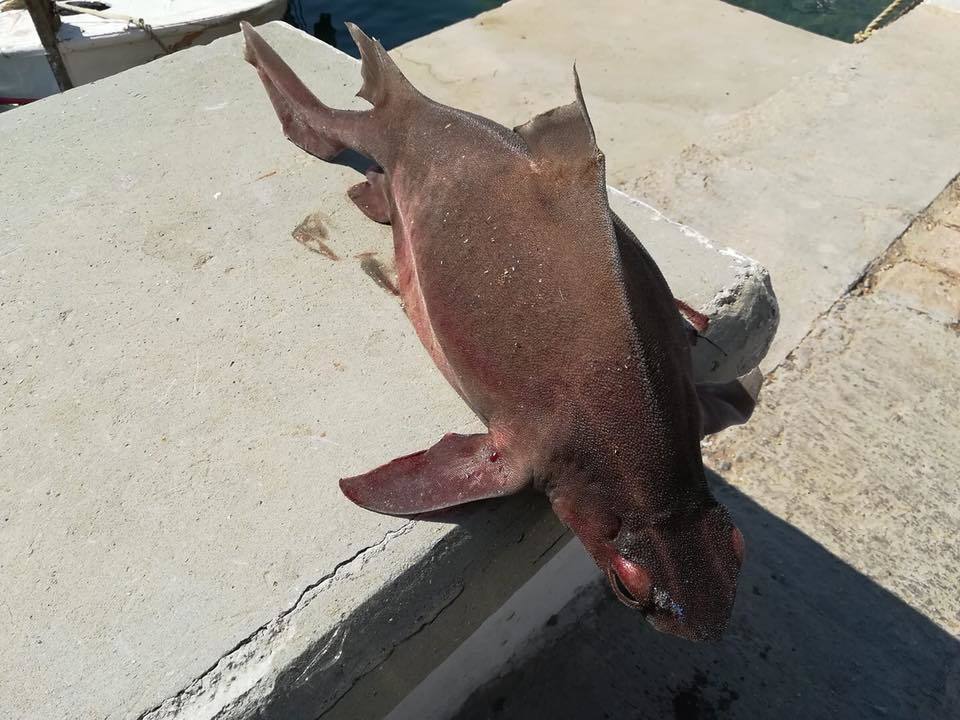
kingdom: Animalia
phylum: Chordata
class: Elasmobranchii
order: Squaliformes
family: Oxynotidae
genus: Oxynotus
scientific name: Oxynotus centrina
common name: Angular roughshark
